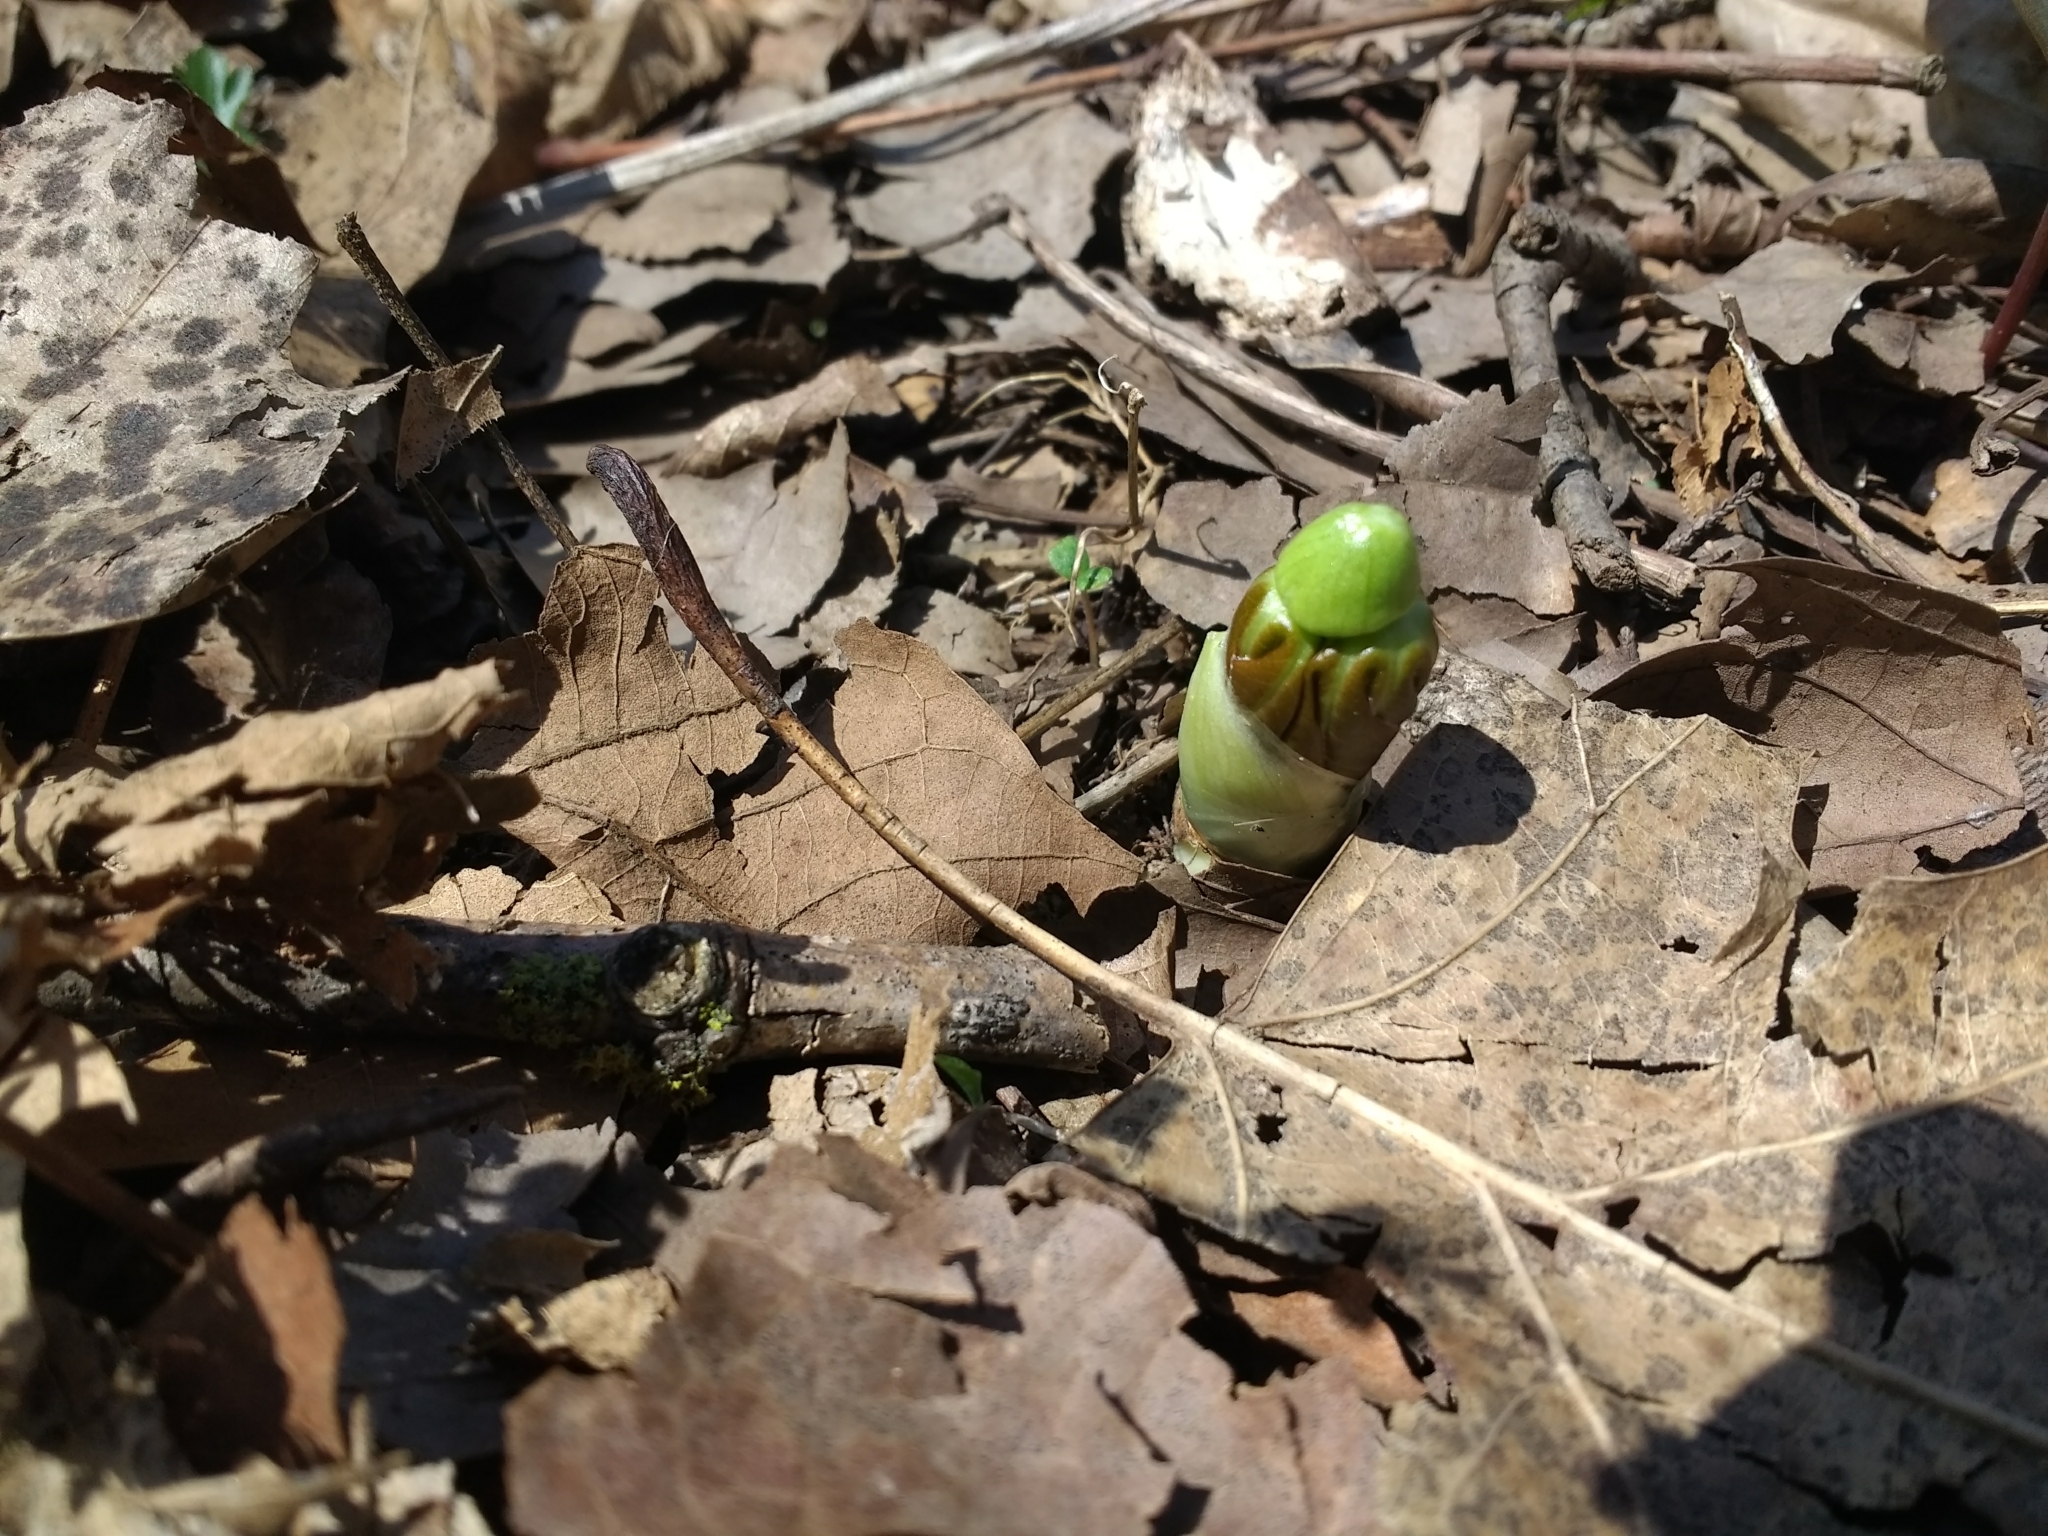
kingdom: Plantae
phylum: Tracheophyta
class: Magnoliopsida
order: Ranunculales
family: Berberidaceae
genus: Podophyllum
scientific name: Podophyllum peltatum
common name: Wild mandrake
